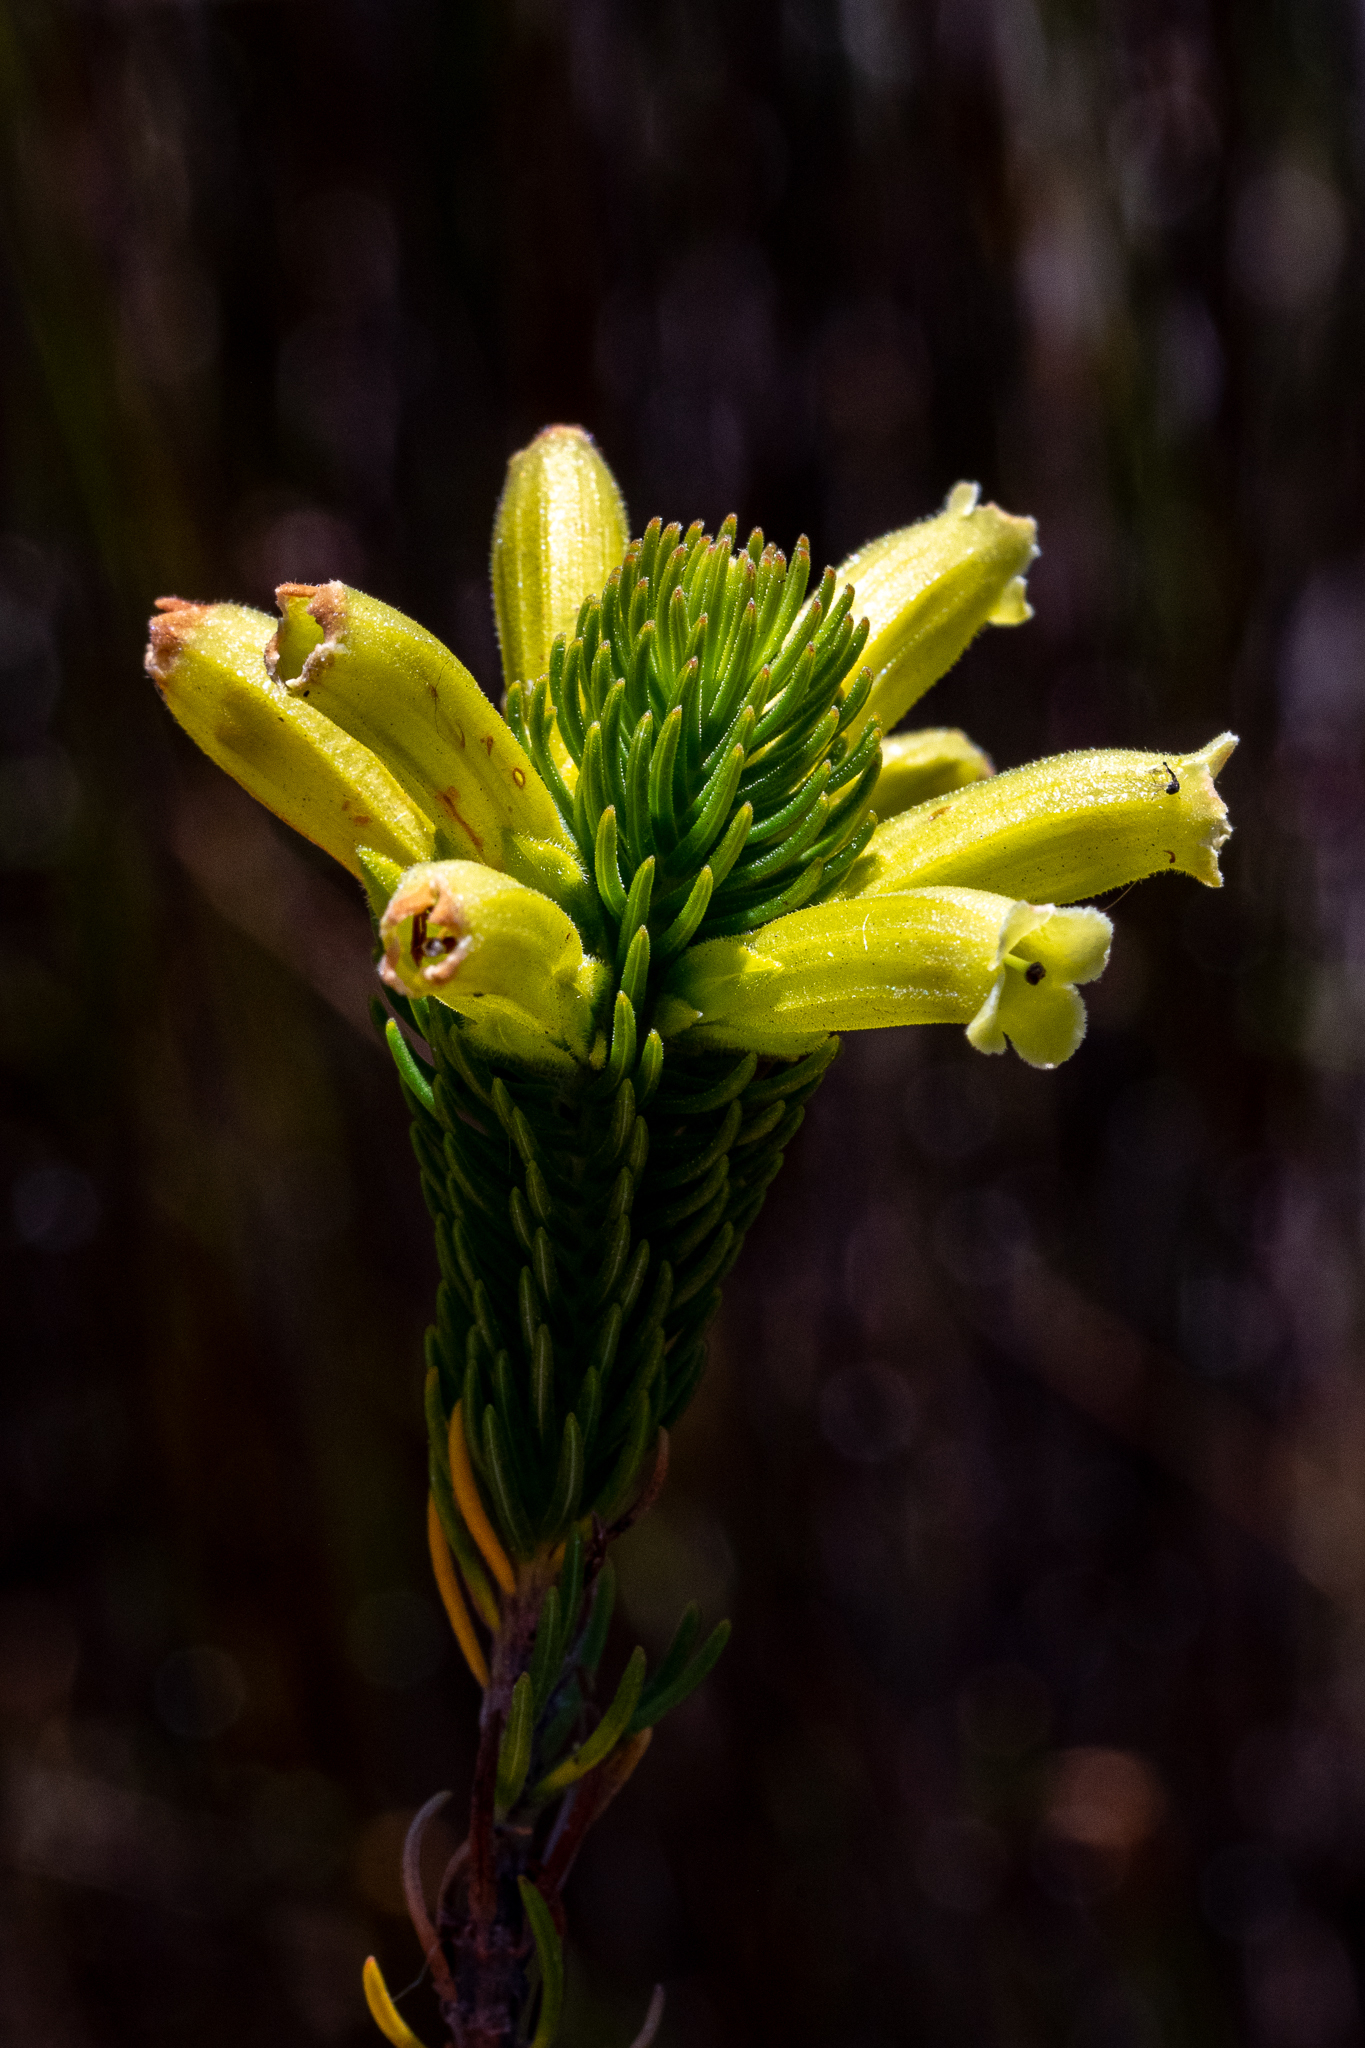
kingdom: Plantae
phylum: Tracheophyta
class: Magnoliopsida
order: Ericales
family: Ericaceae
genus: Erica
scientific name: Erica viscaria
